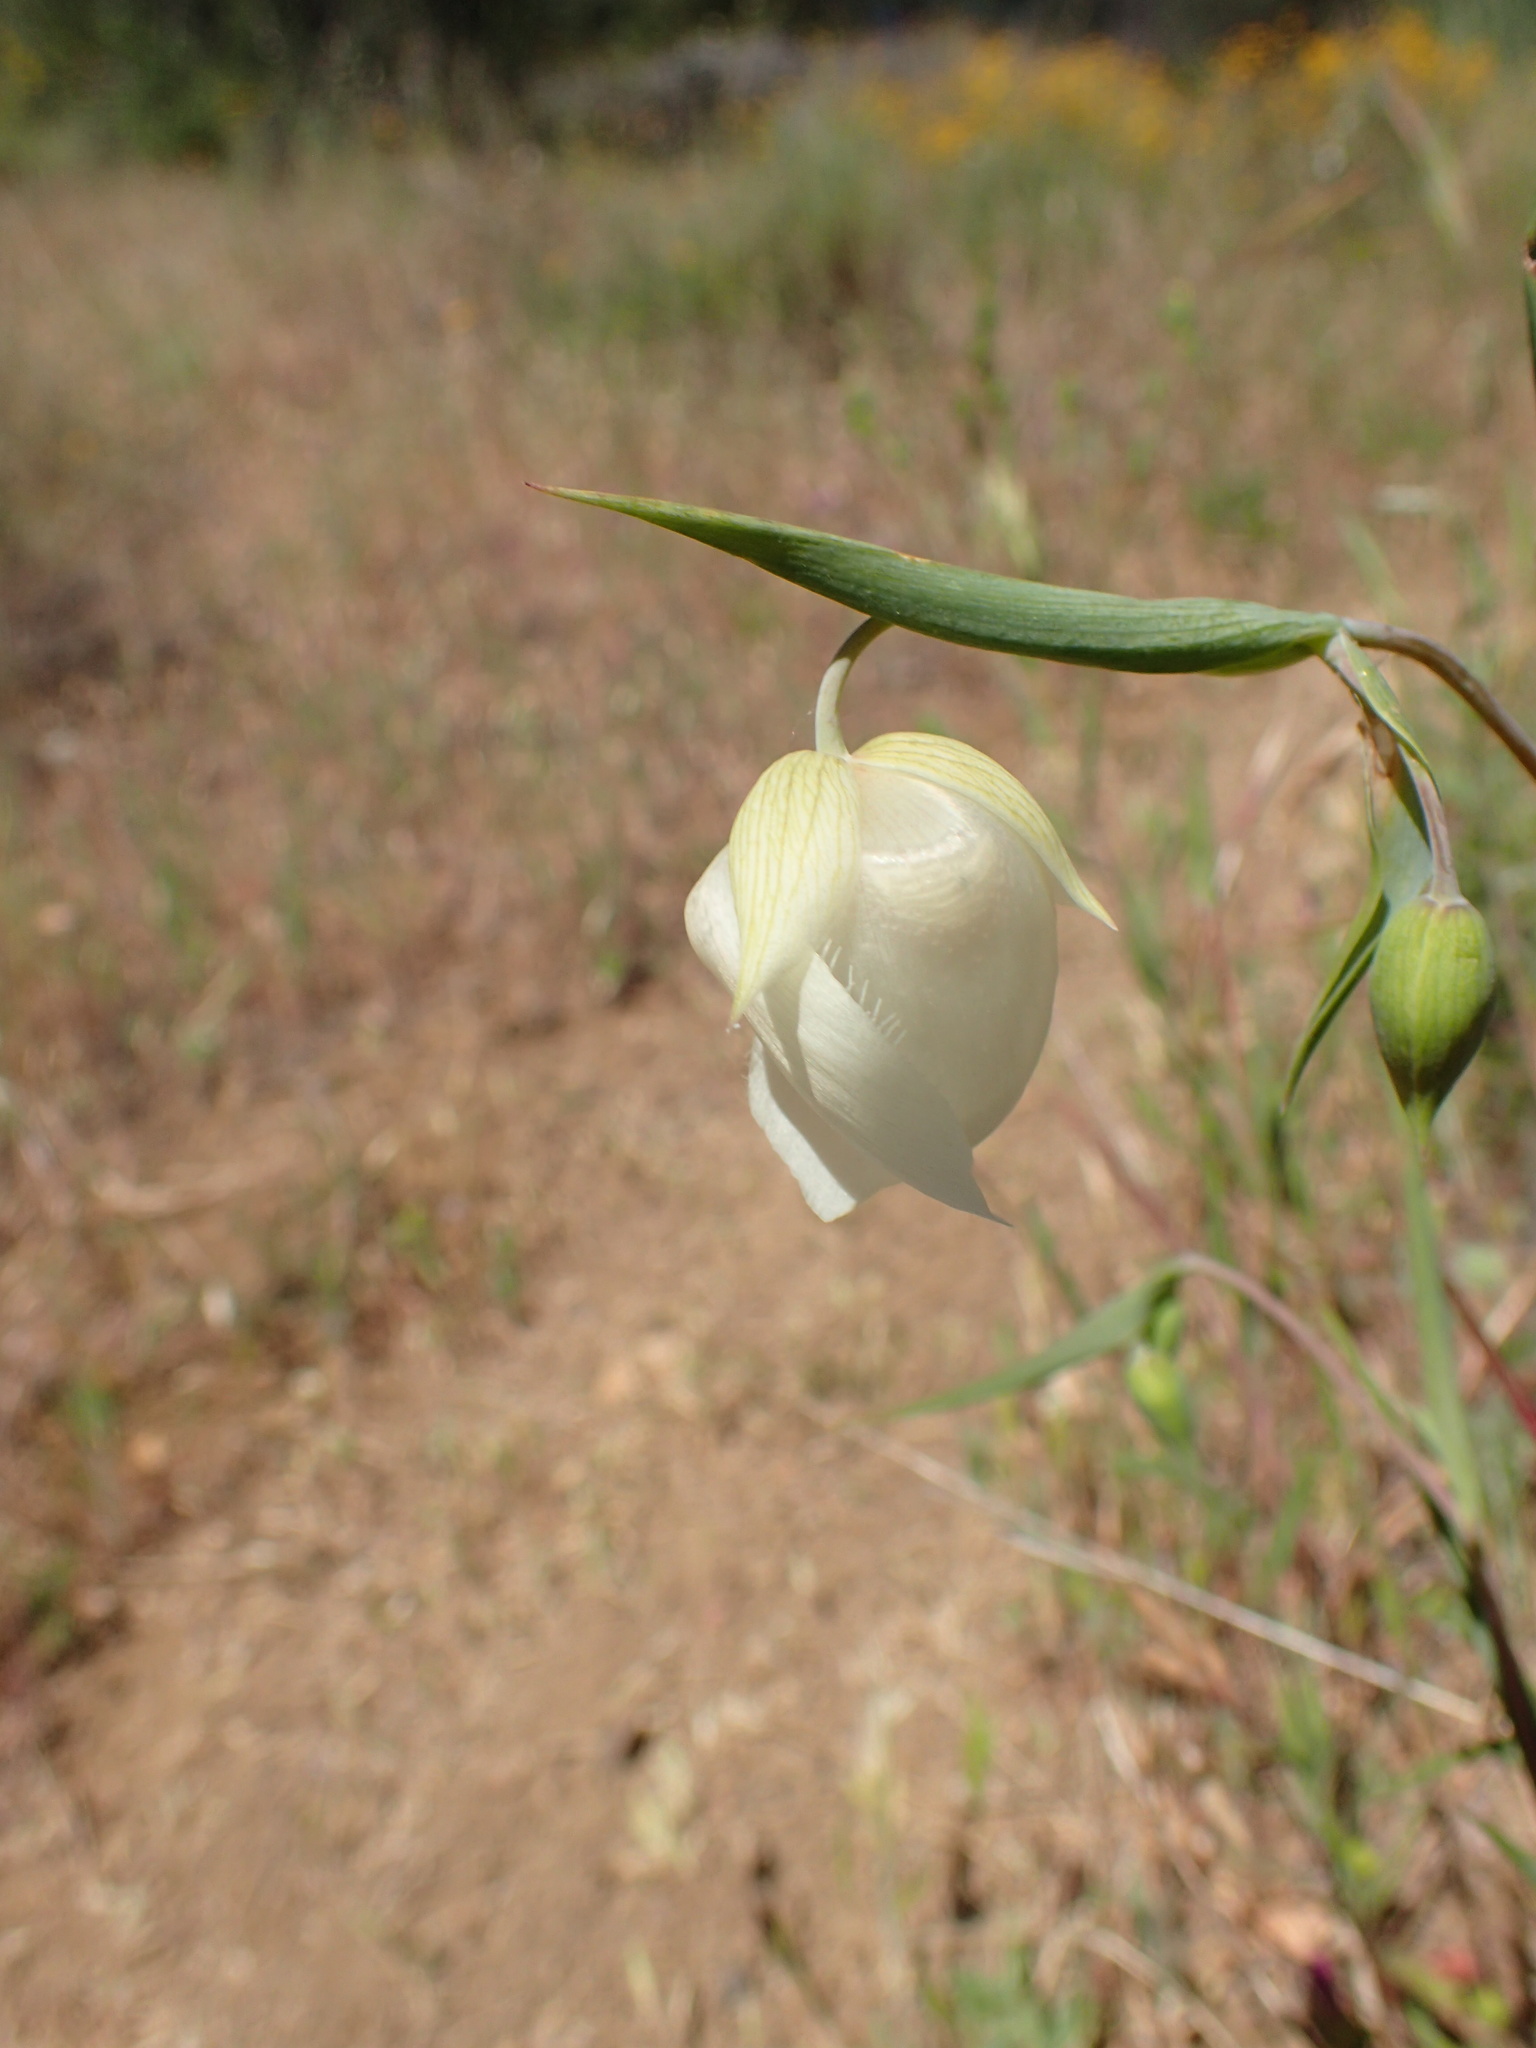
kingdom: Plantae
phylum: Tracheophyta
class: Liliopsida
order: Liliales
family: Liliaceae
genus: Calochortus
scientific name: Calochortus albus
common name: Fairy-lantern
